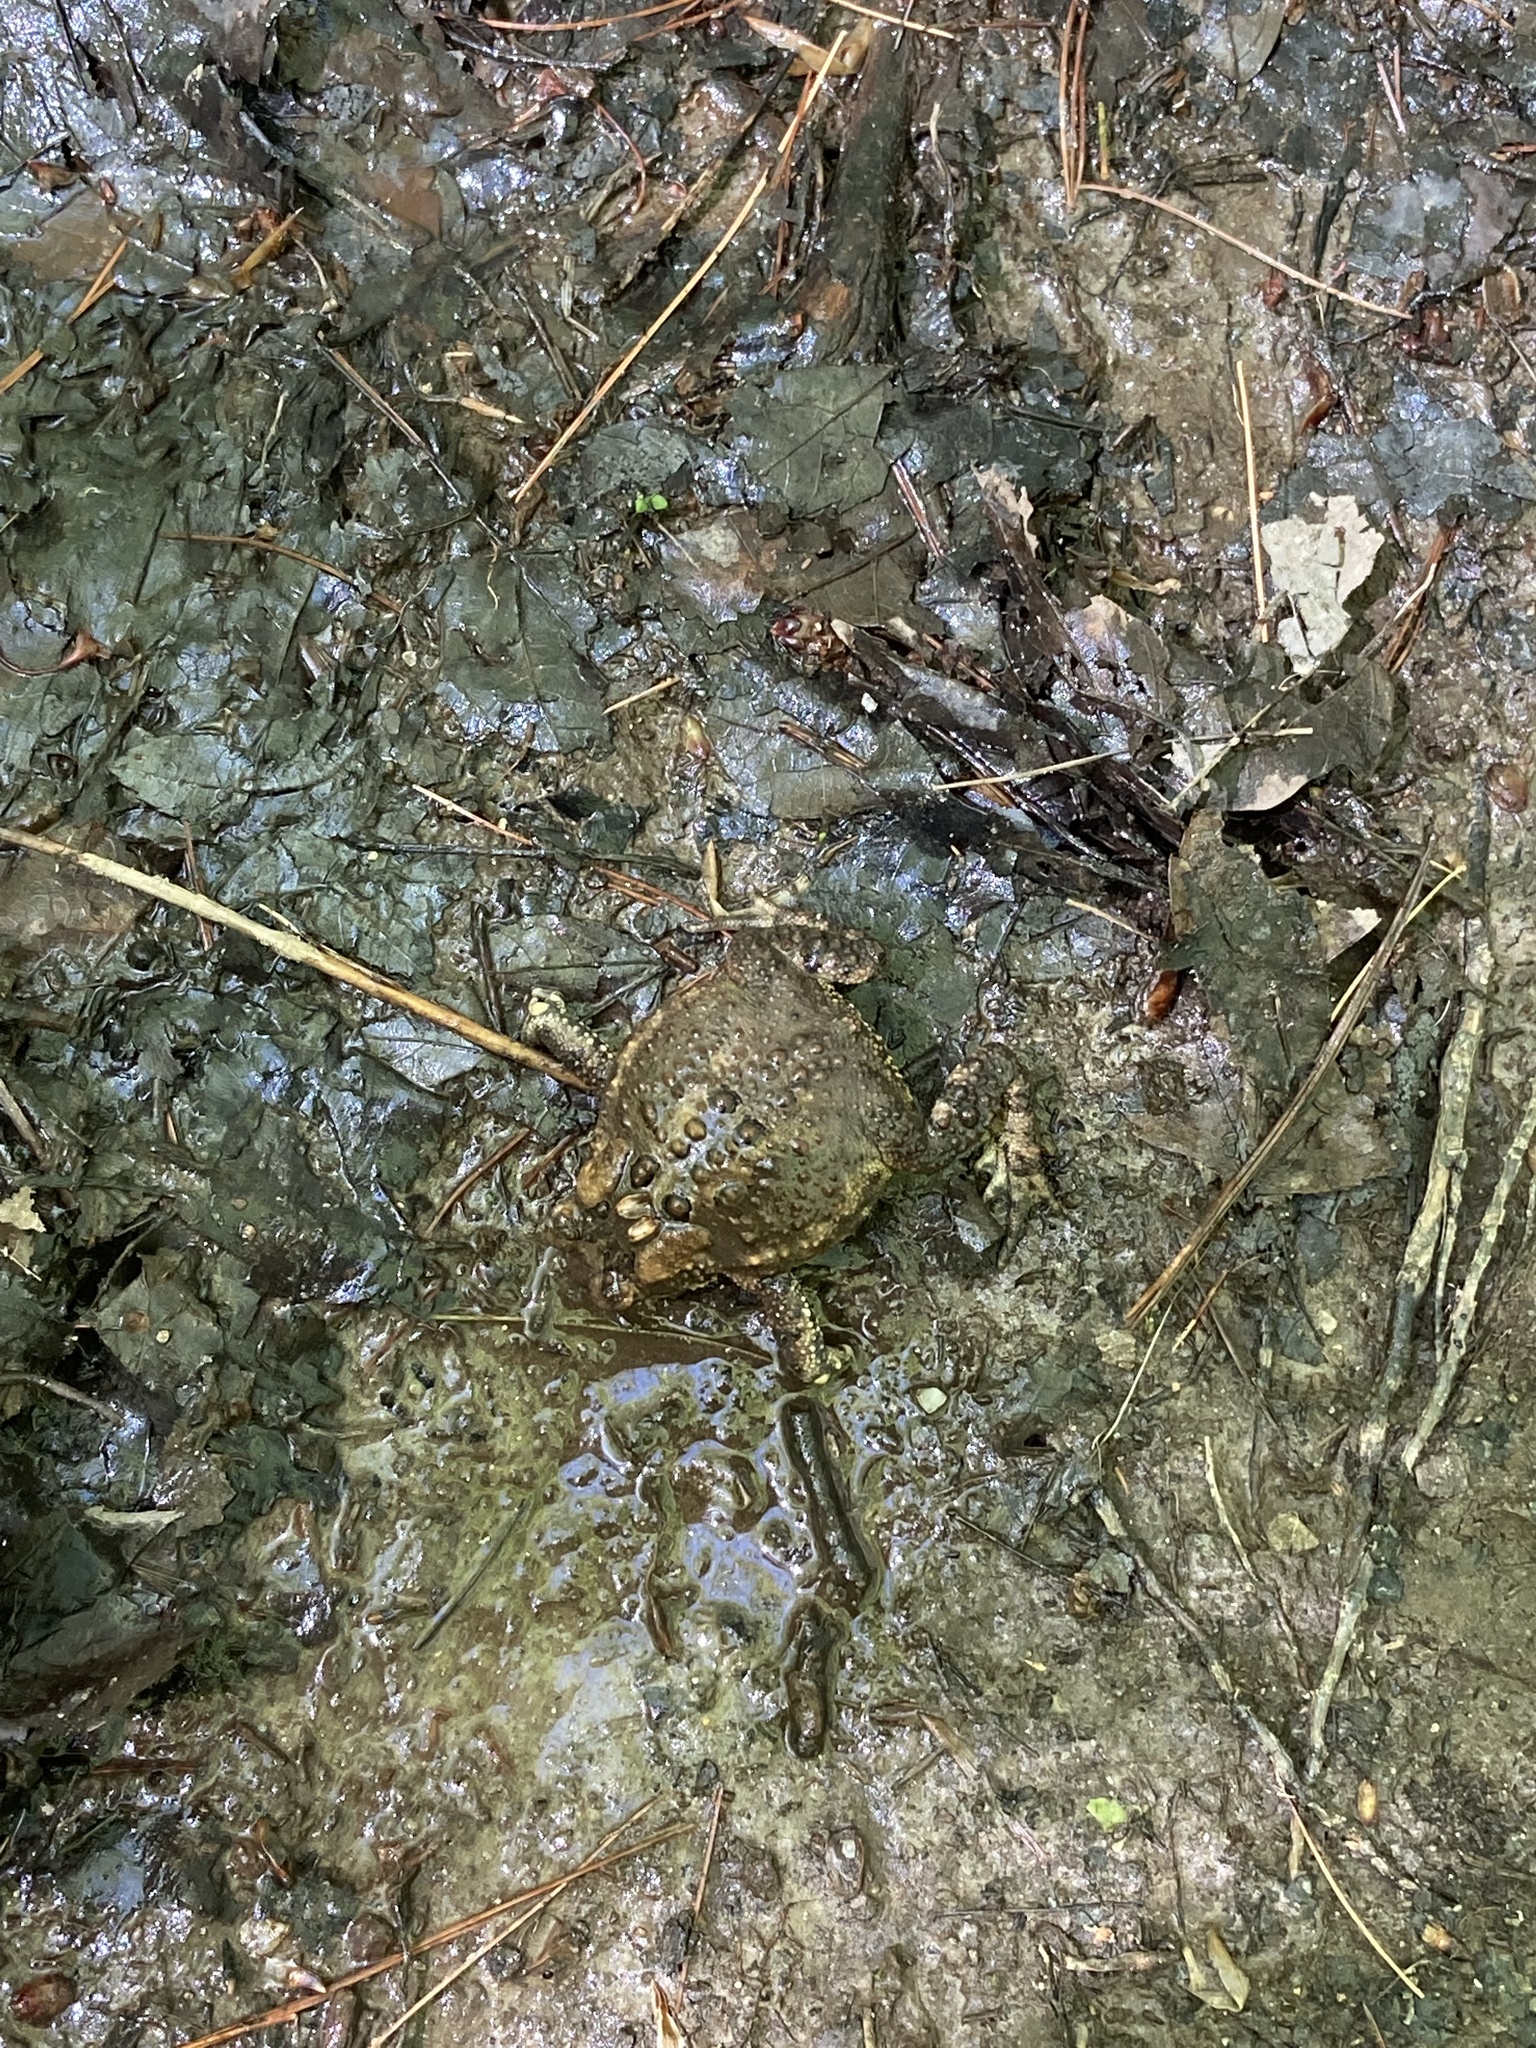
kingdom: Animalia
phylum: Chordata
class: Amphibia
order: Anura
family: Bufonidae
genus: Anaxyrus
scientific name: Anaxyrus americanus
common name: American toad
